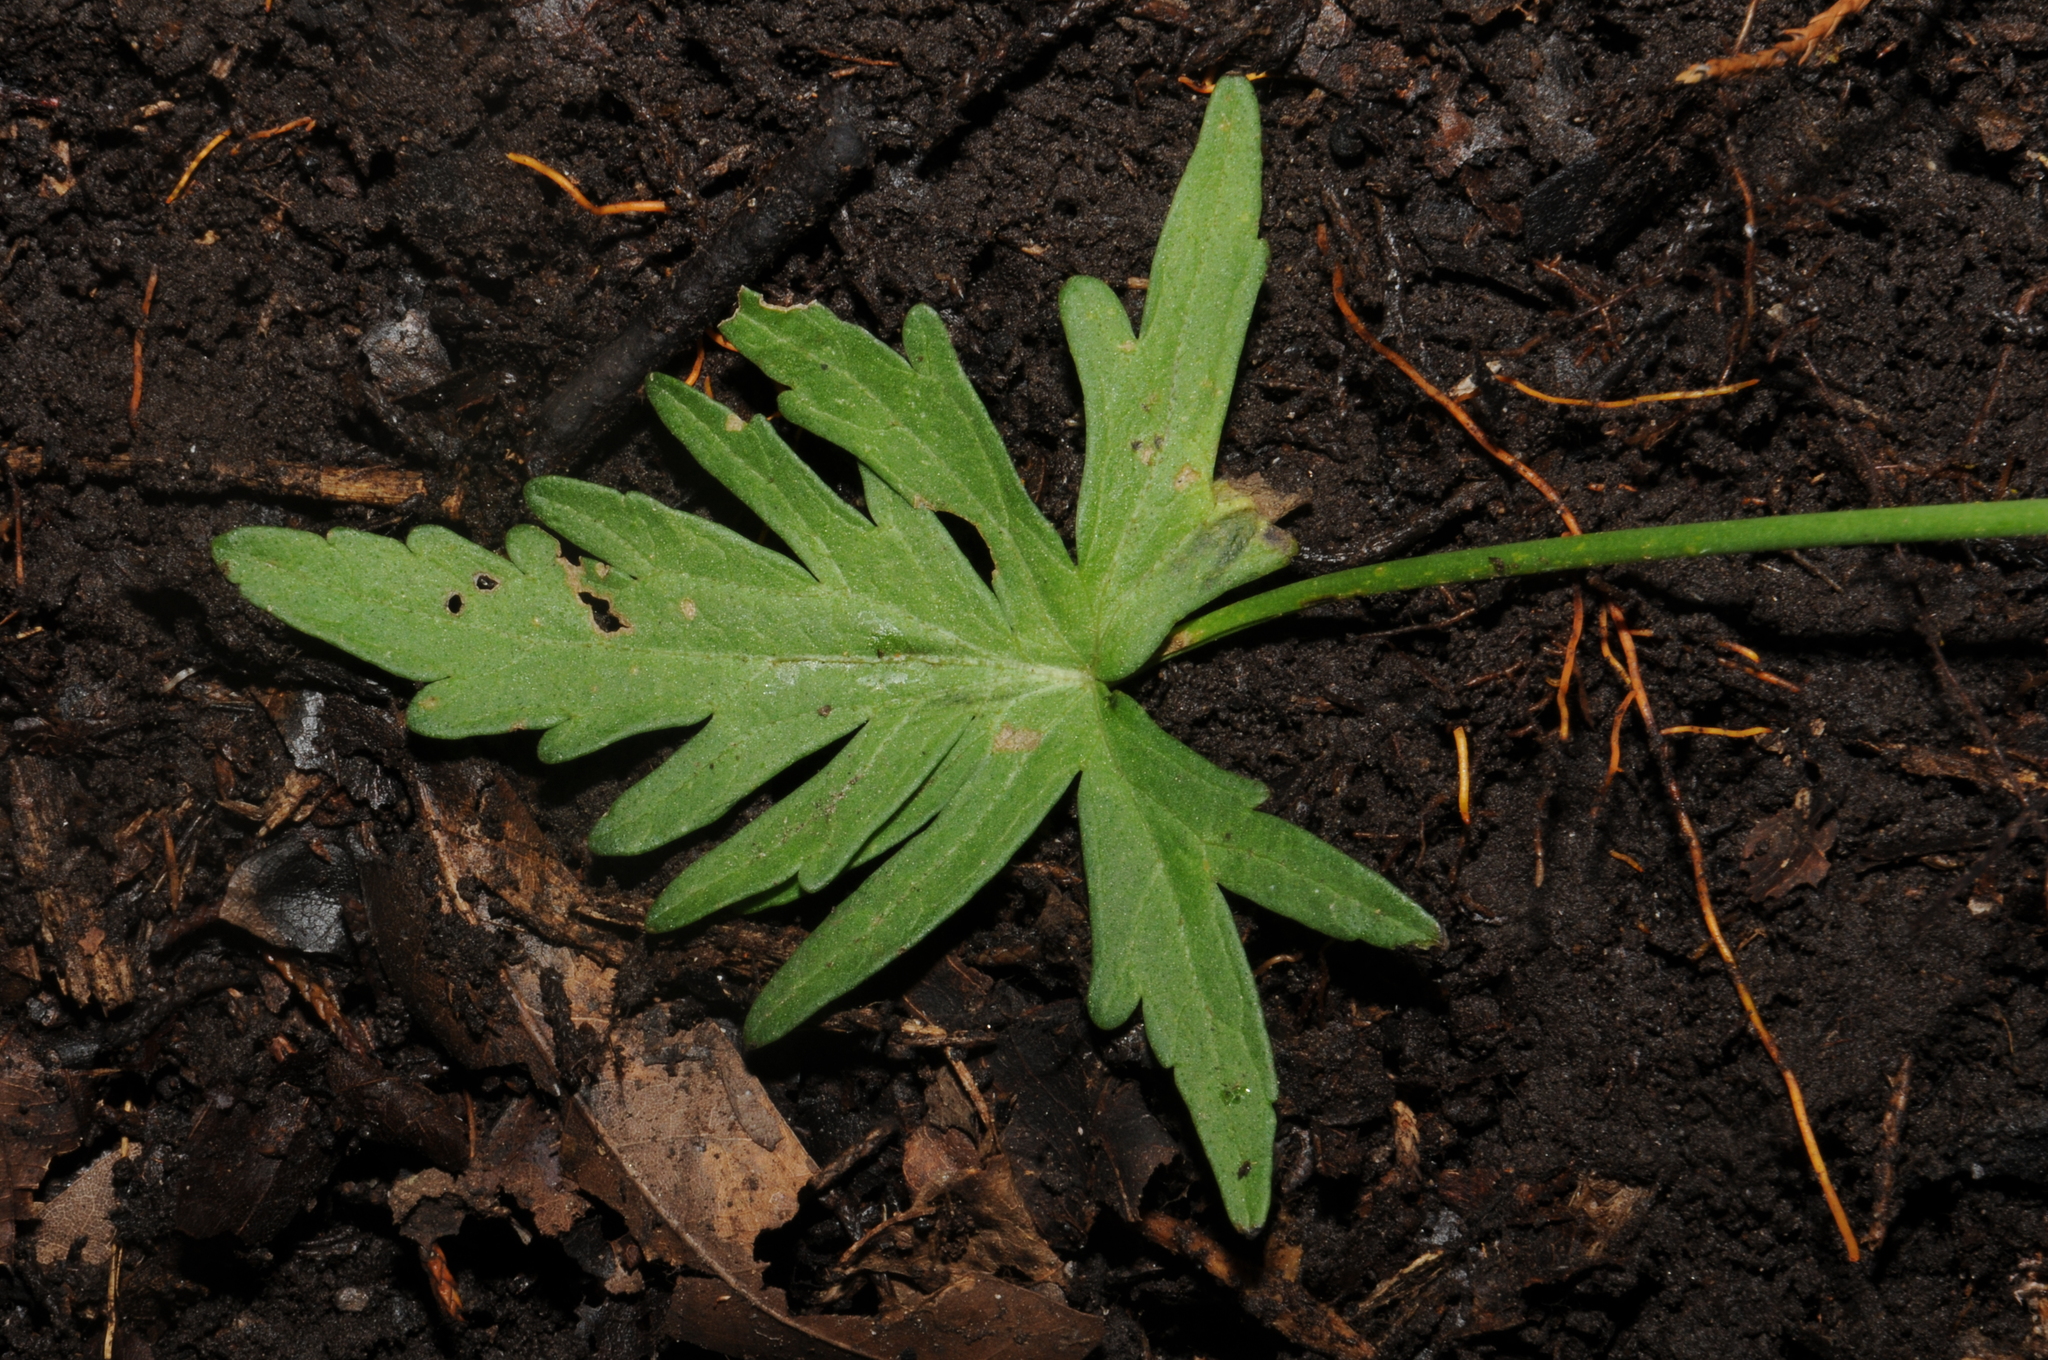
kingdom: Plantae
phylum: Tracheophyta
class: Magnoliopsida
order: Malvales
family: Malvaceae
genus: Callirhoe
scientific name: Callirhoe alcaeoides
